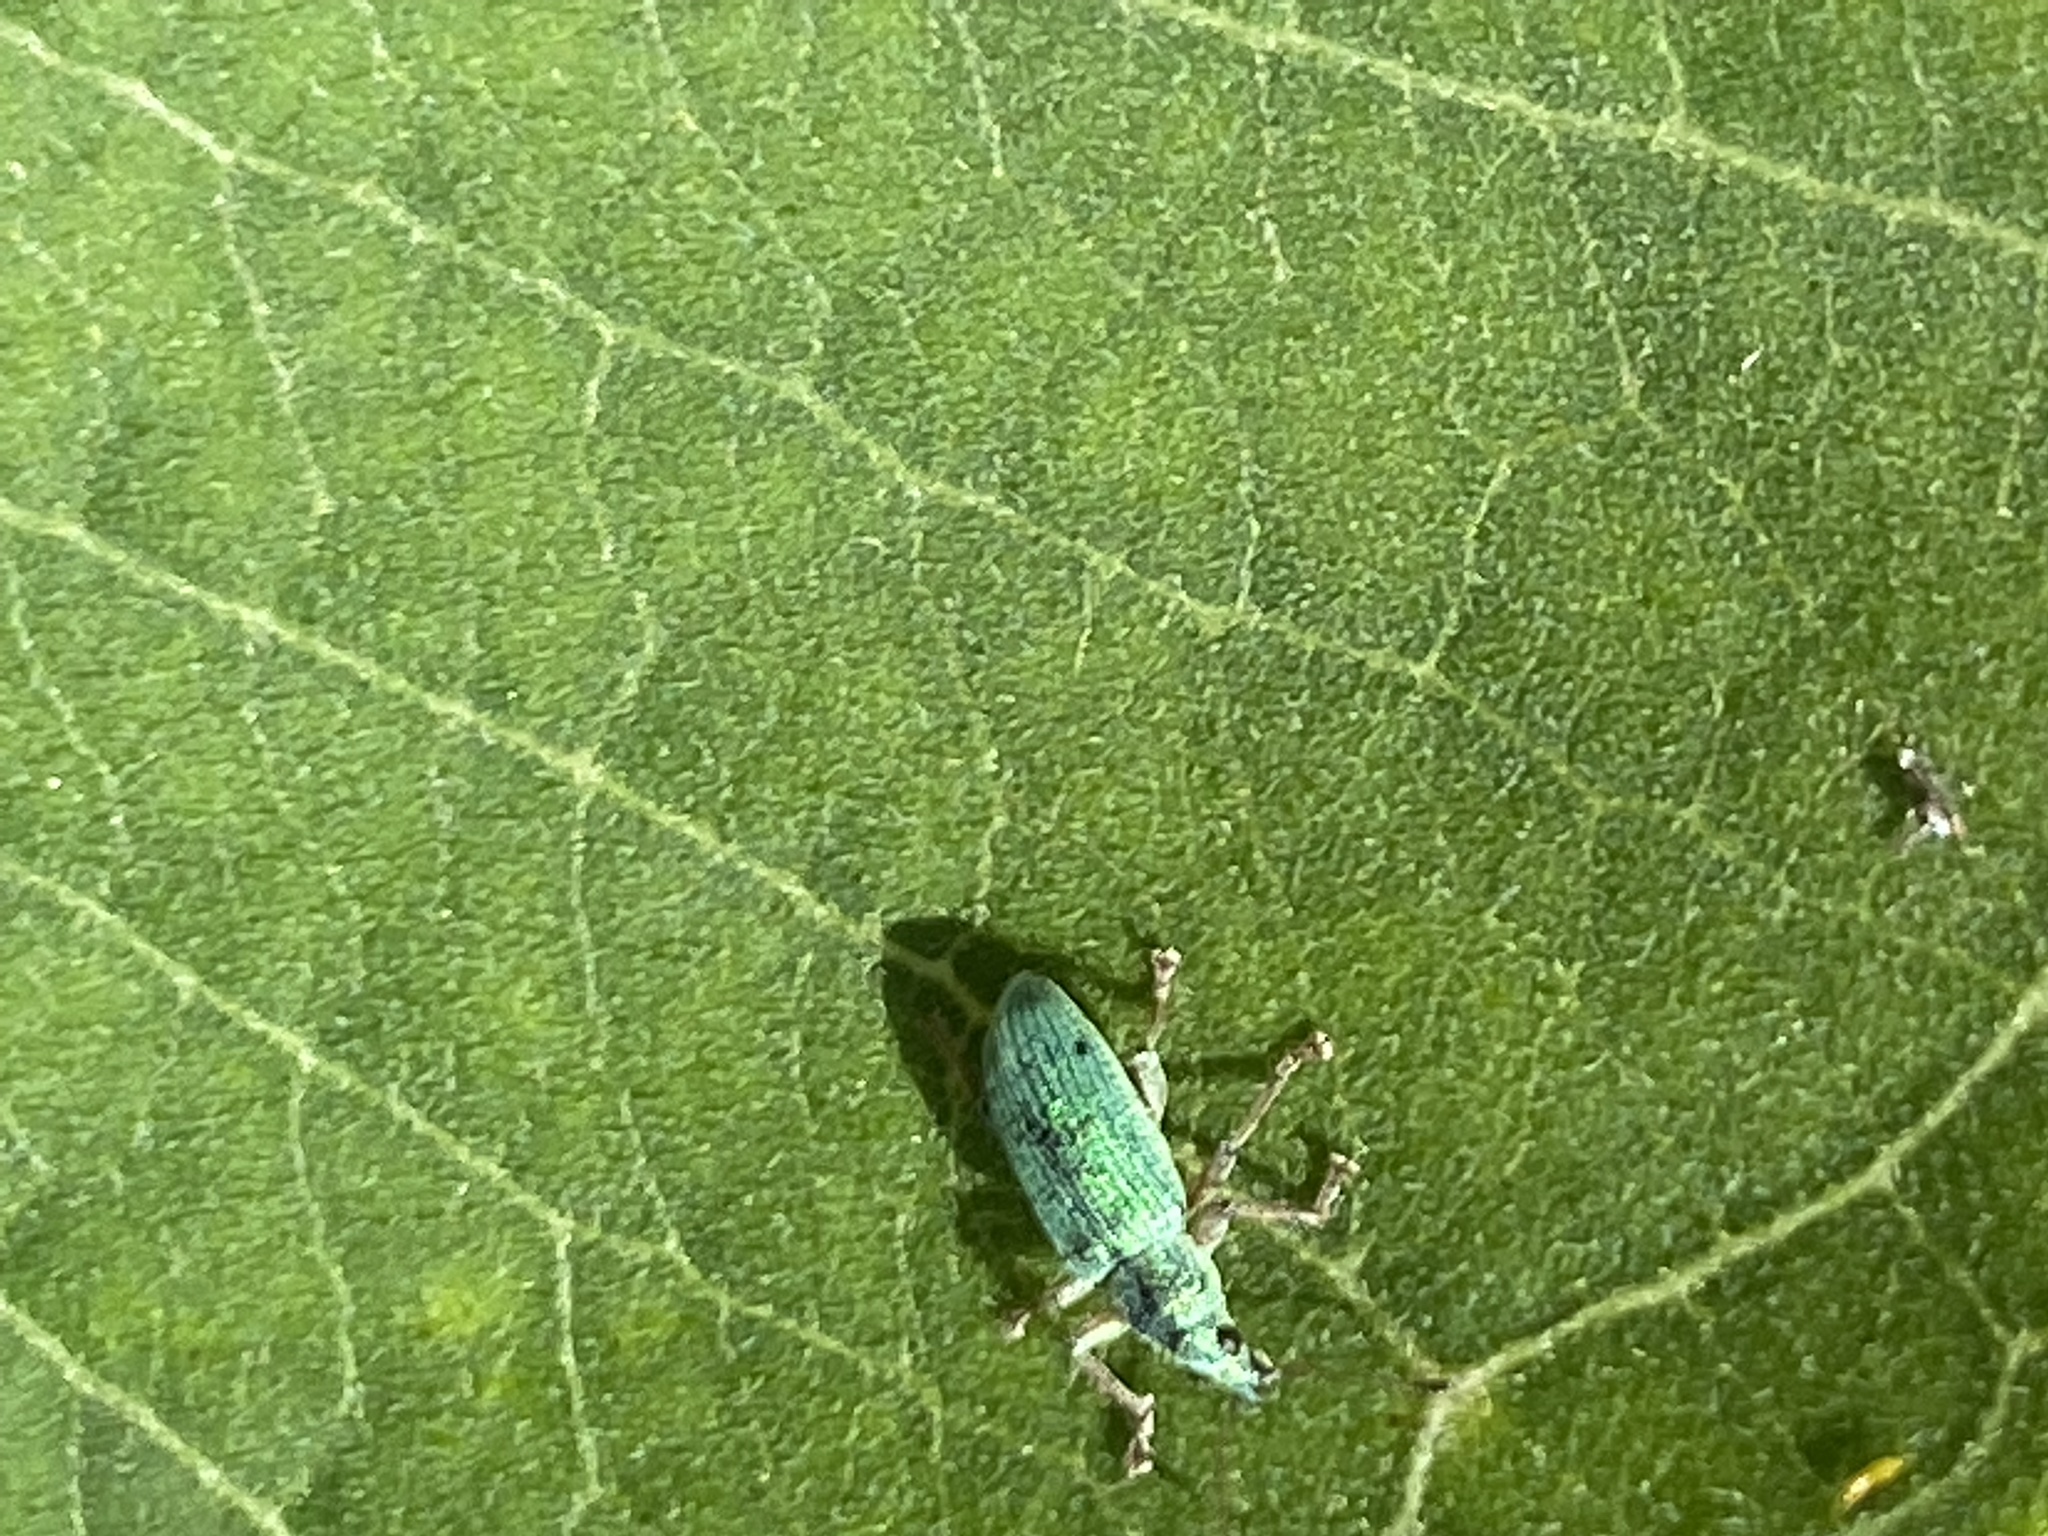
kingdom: Animalia
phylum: Arthropoda
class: Insecta
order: Coleoptera
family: Curculionidae
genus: Polydrusus
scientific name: Polydrusus formosus
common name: Weevil
